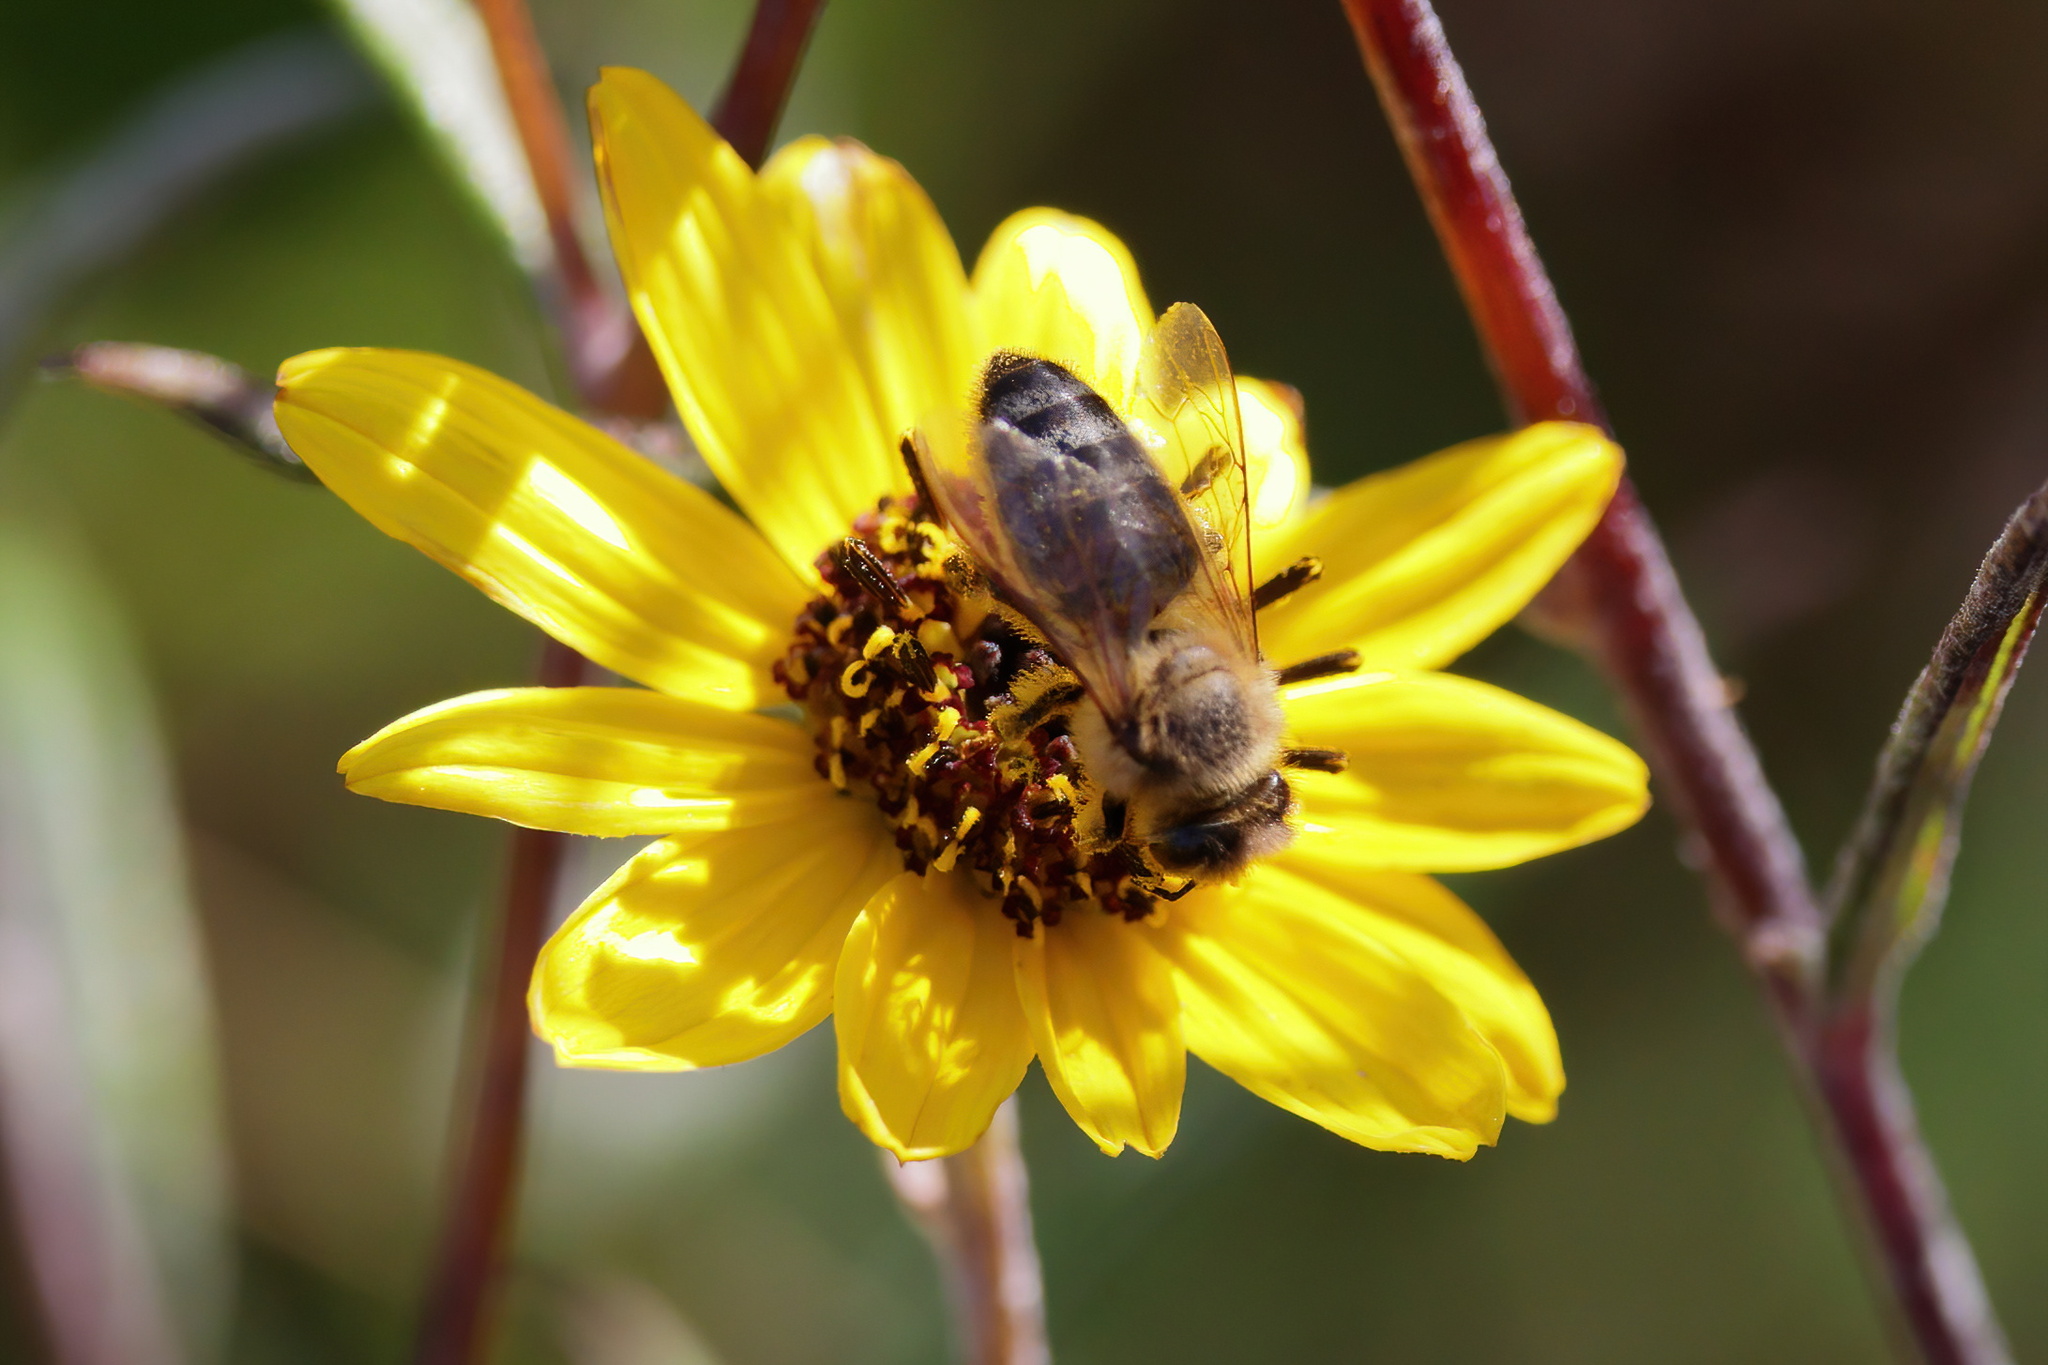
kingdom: Animalia
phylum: Arthropoda
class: Insecta
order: Hymenoptera
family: Apidae
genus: Apis
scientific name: Apis mellifera
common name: Honey bee
